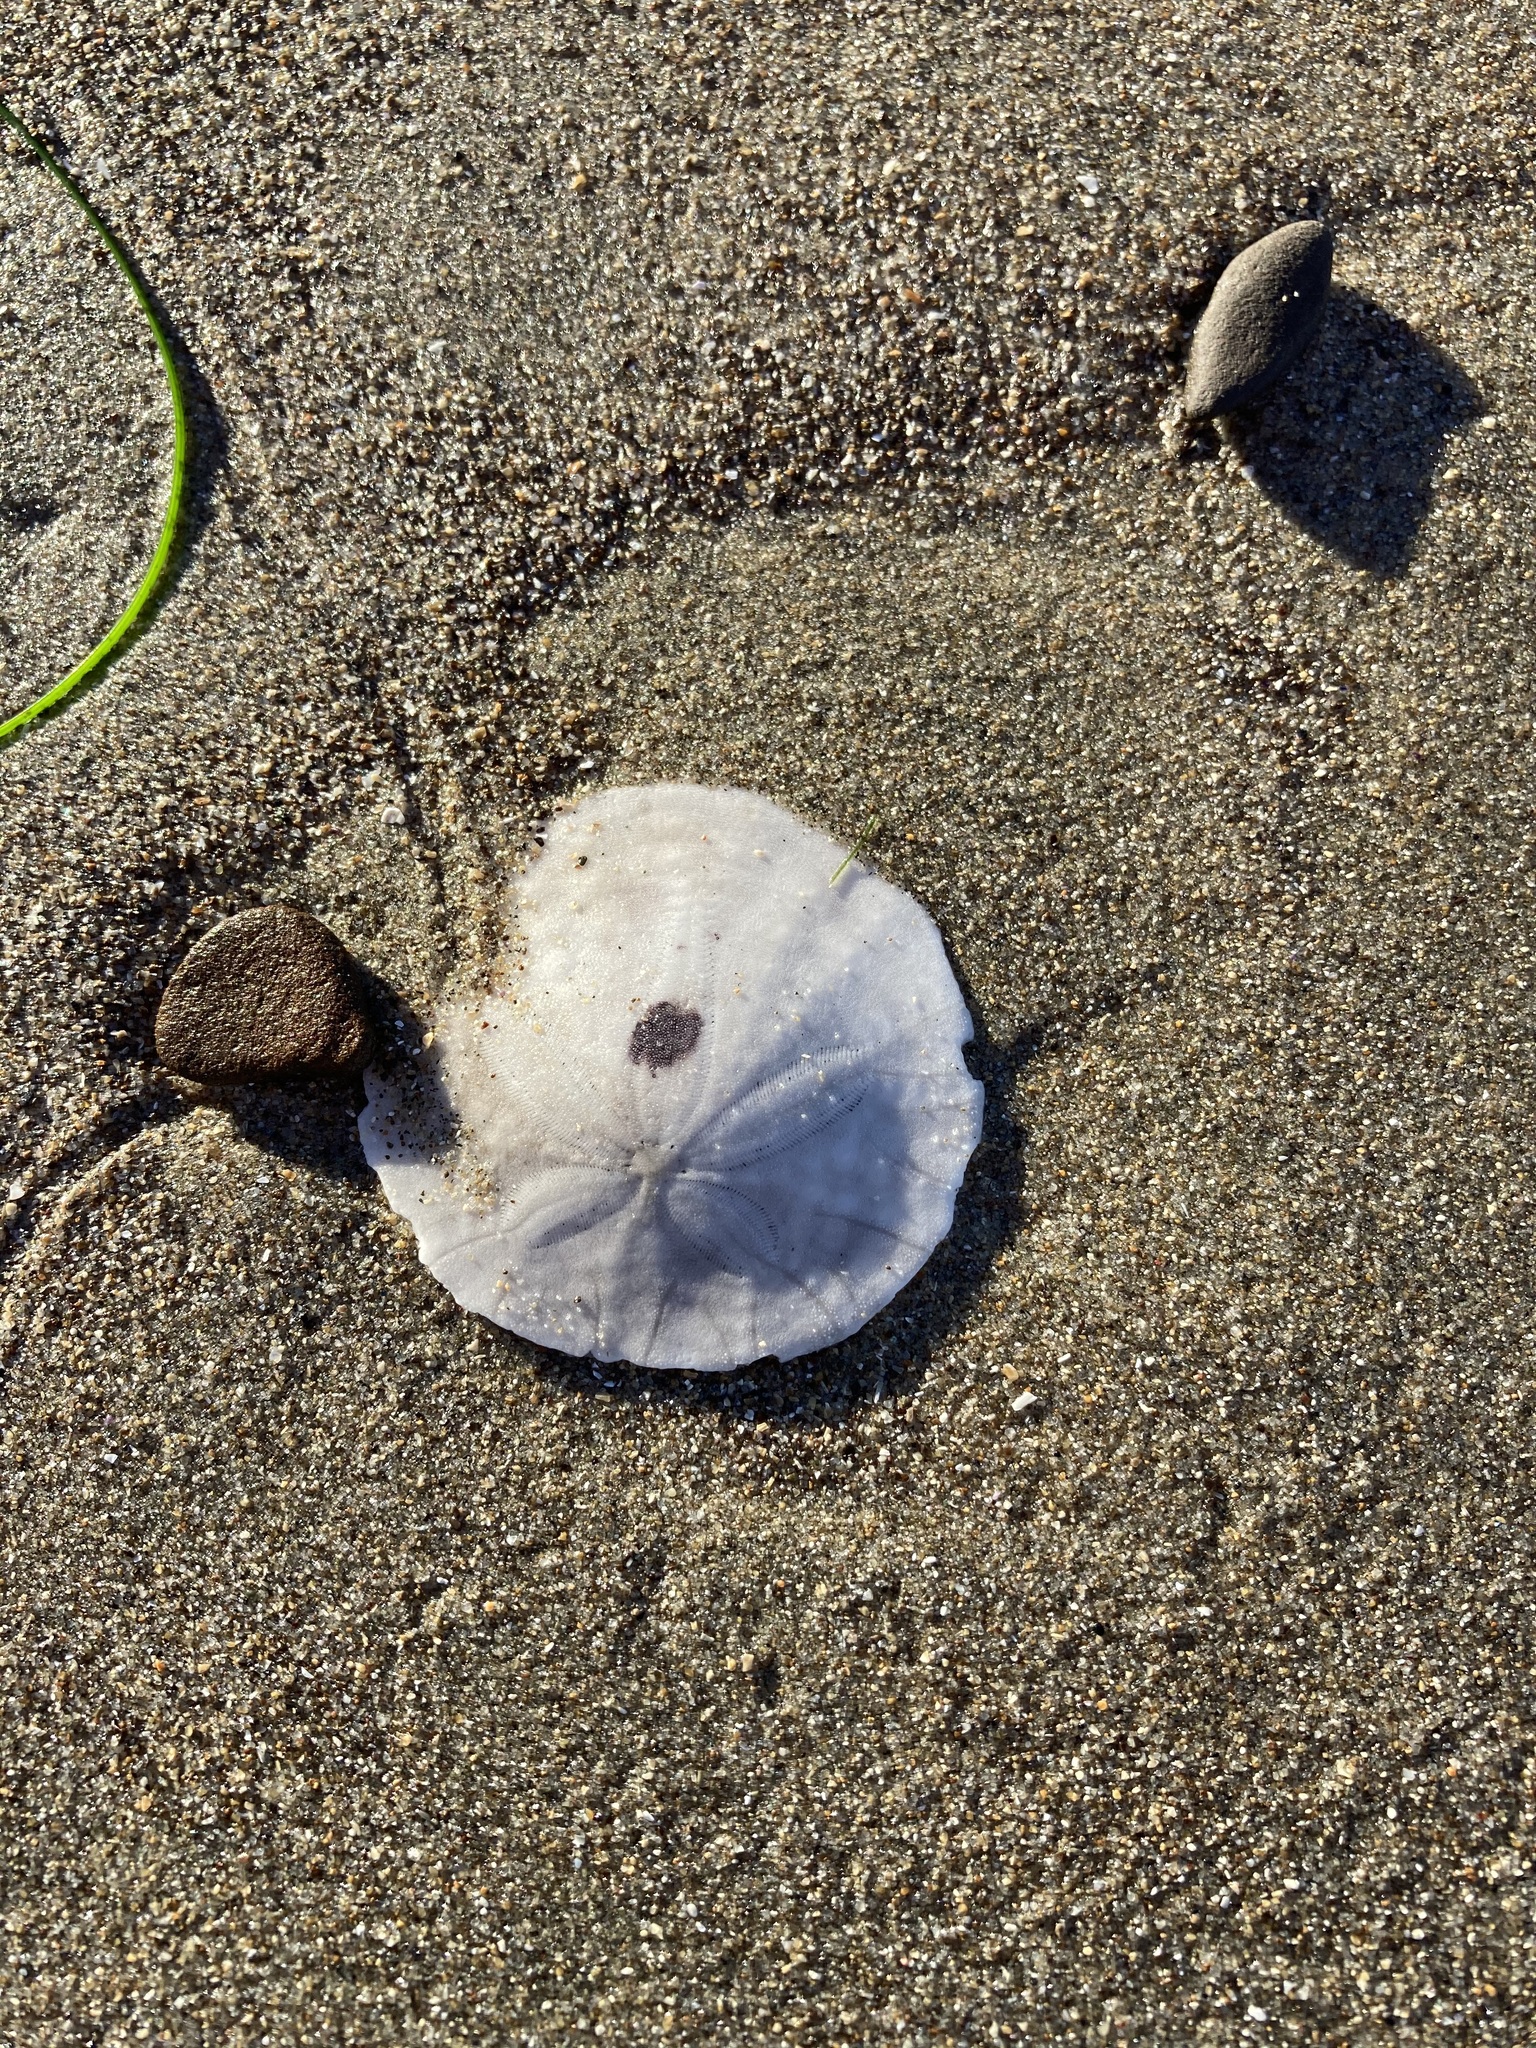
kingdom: Animalia
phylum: Echinodermata
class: Echinoidea
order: Echinolampadacea
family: Dendrasteridae
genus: Dendraster
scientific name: Dendraster excentricus
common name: Eccentric sand dollar sea urchin
